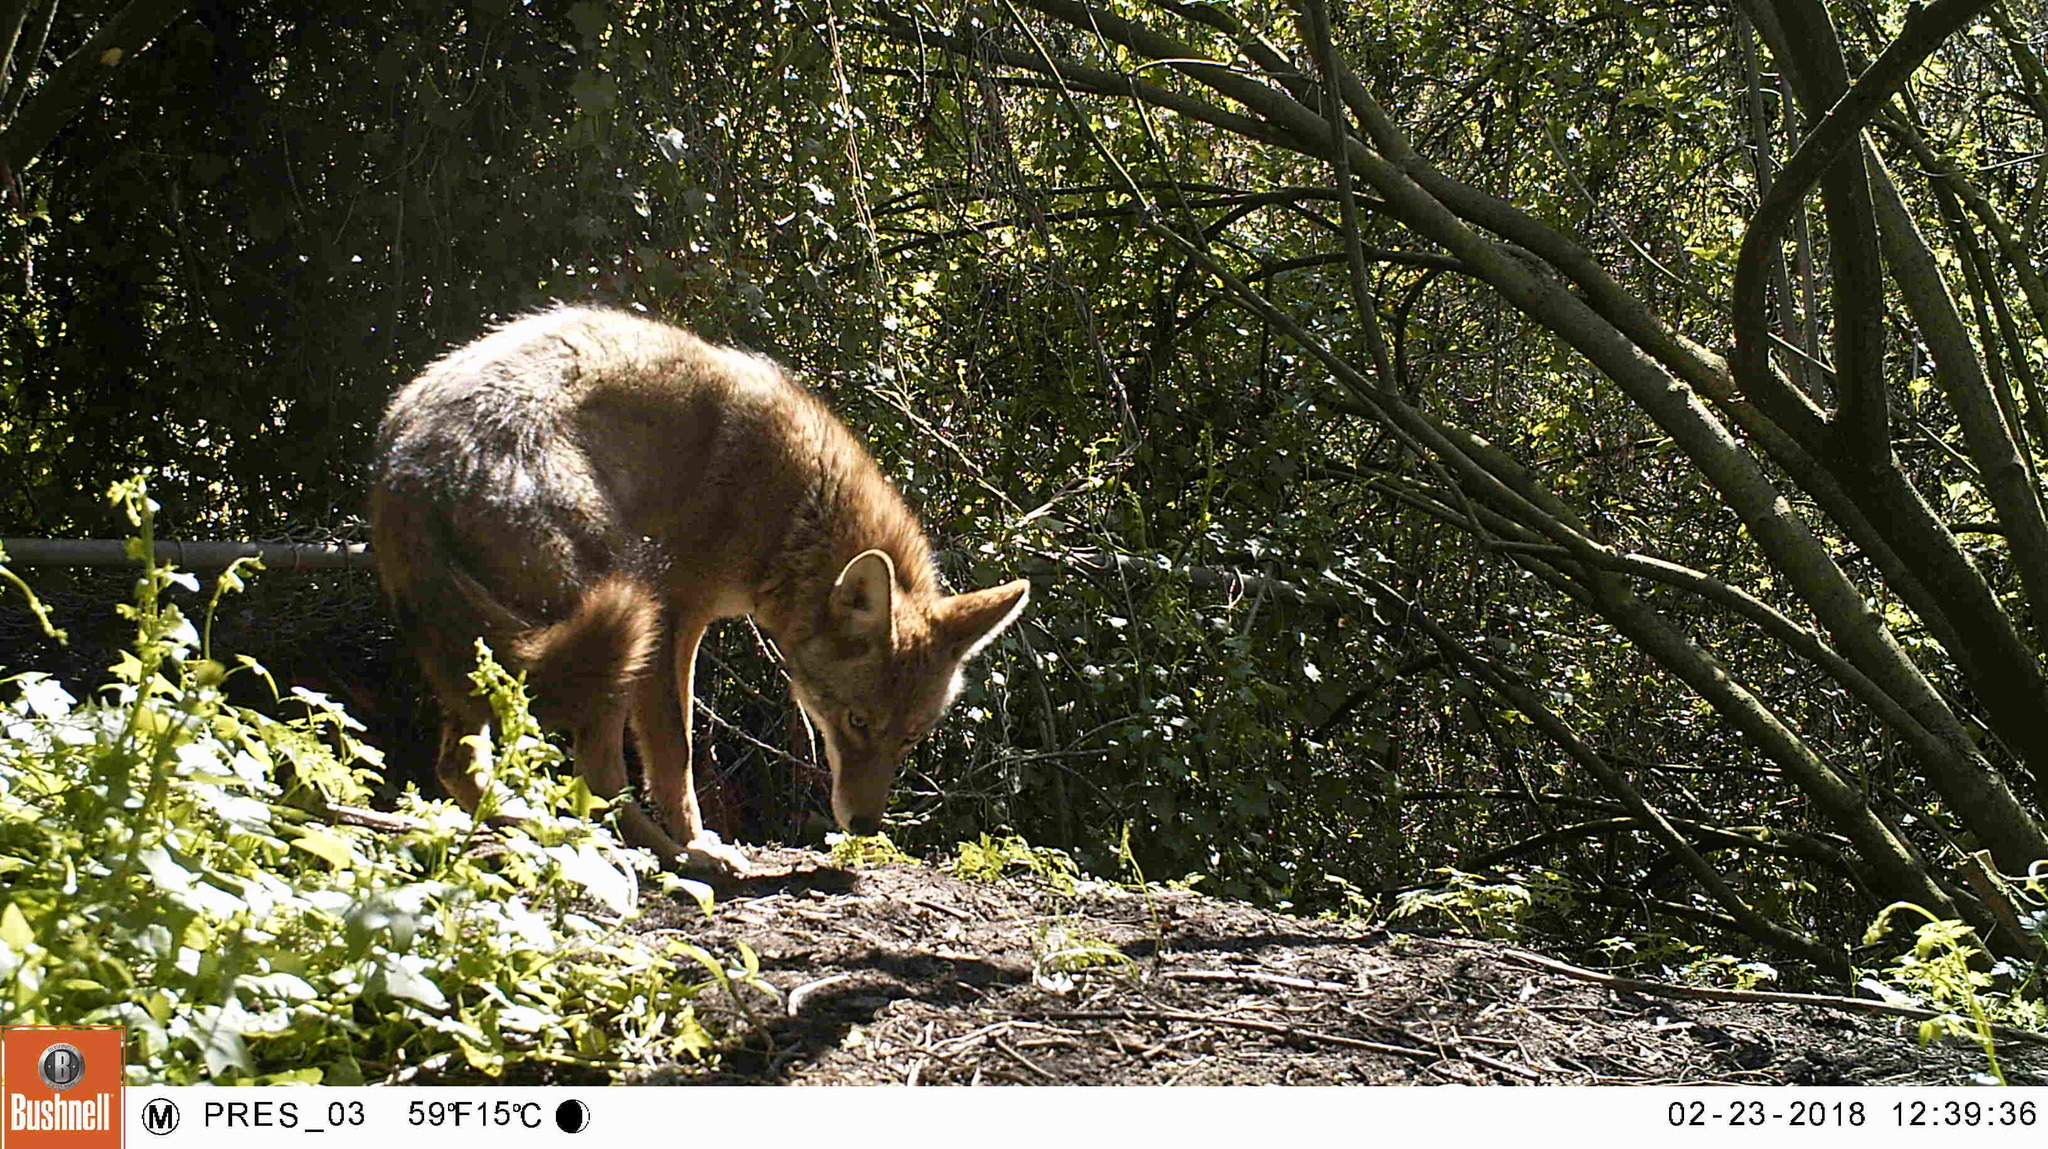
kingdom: Animalia
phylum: Chordata
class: Mammalia
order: Carnivora
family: Canidae
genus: Canis
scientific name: Canis latrans
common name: Coyote
